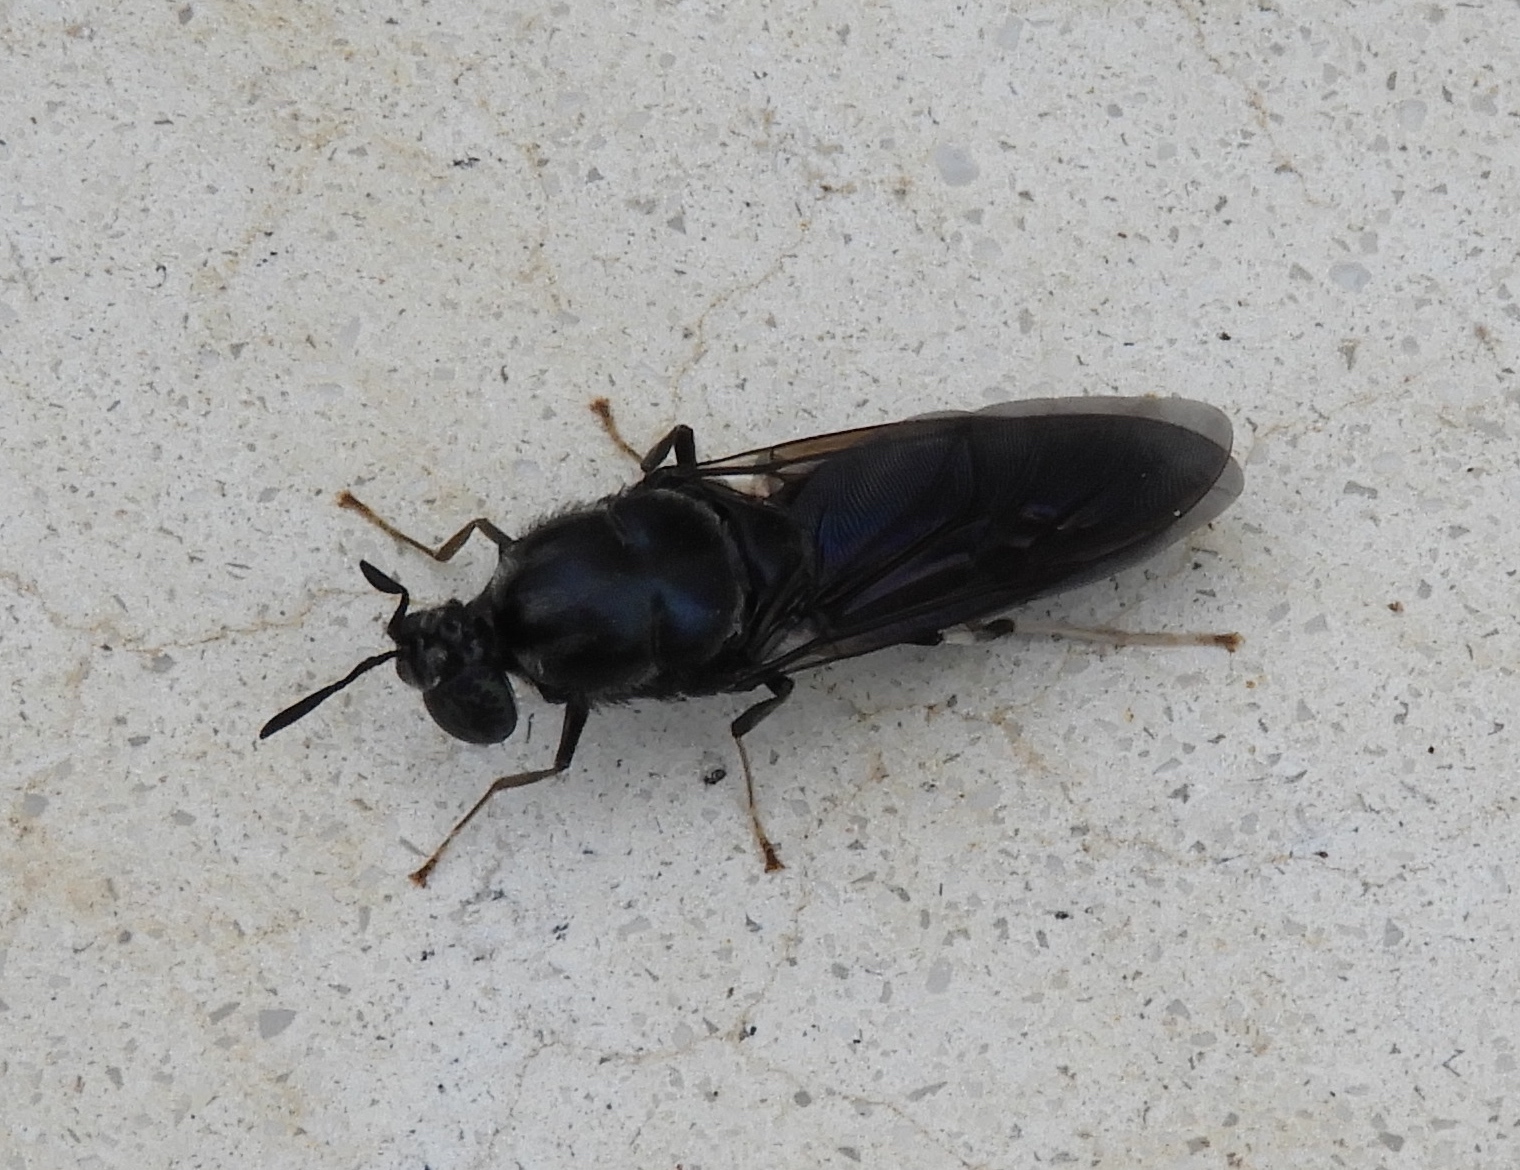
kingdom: Animalia
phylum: Arthropoda
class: Insecta
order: Diptera
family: Stratiomyidae
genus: Hermetia
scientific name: Hermetia illucens
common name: Black soldier fly
